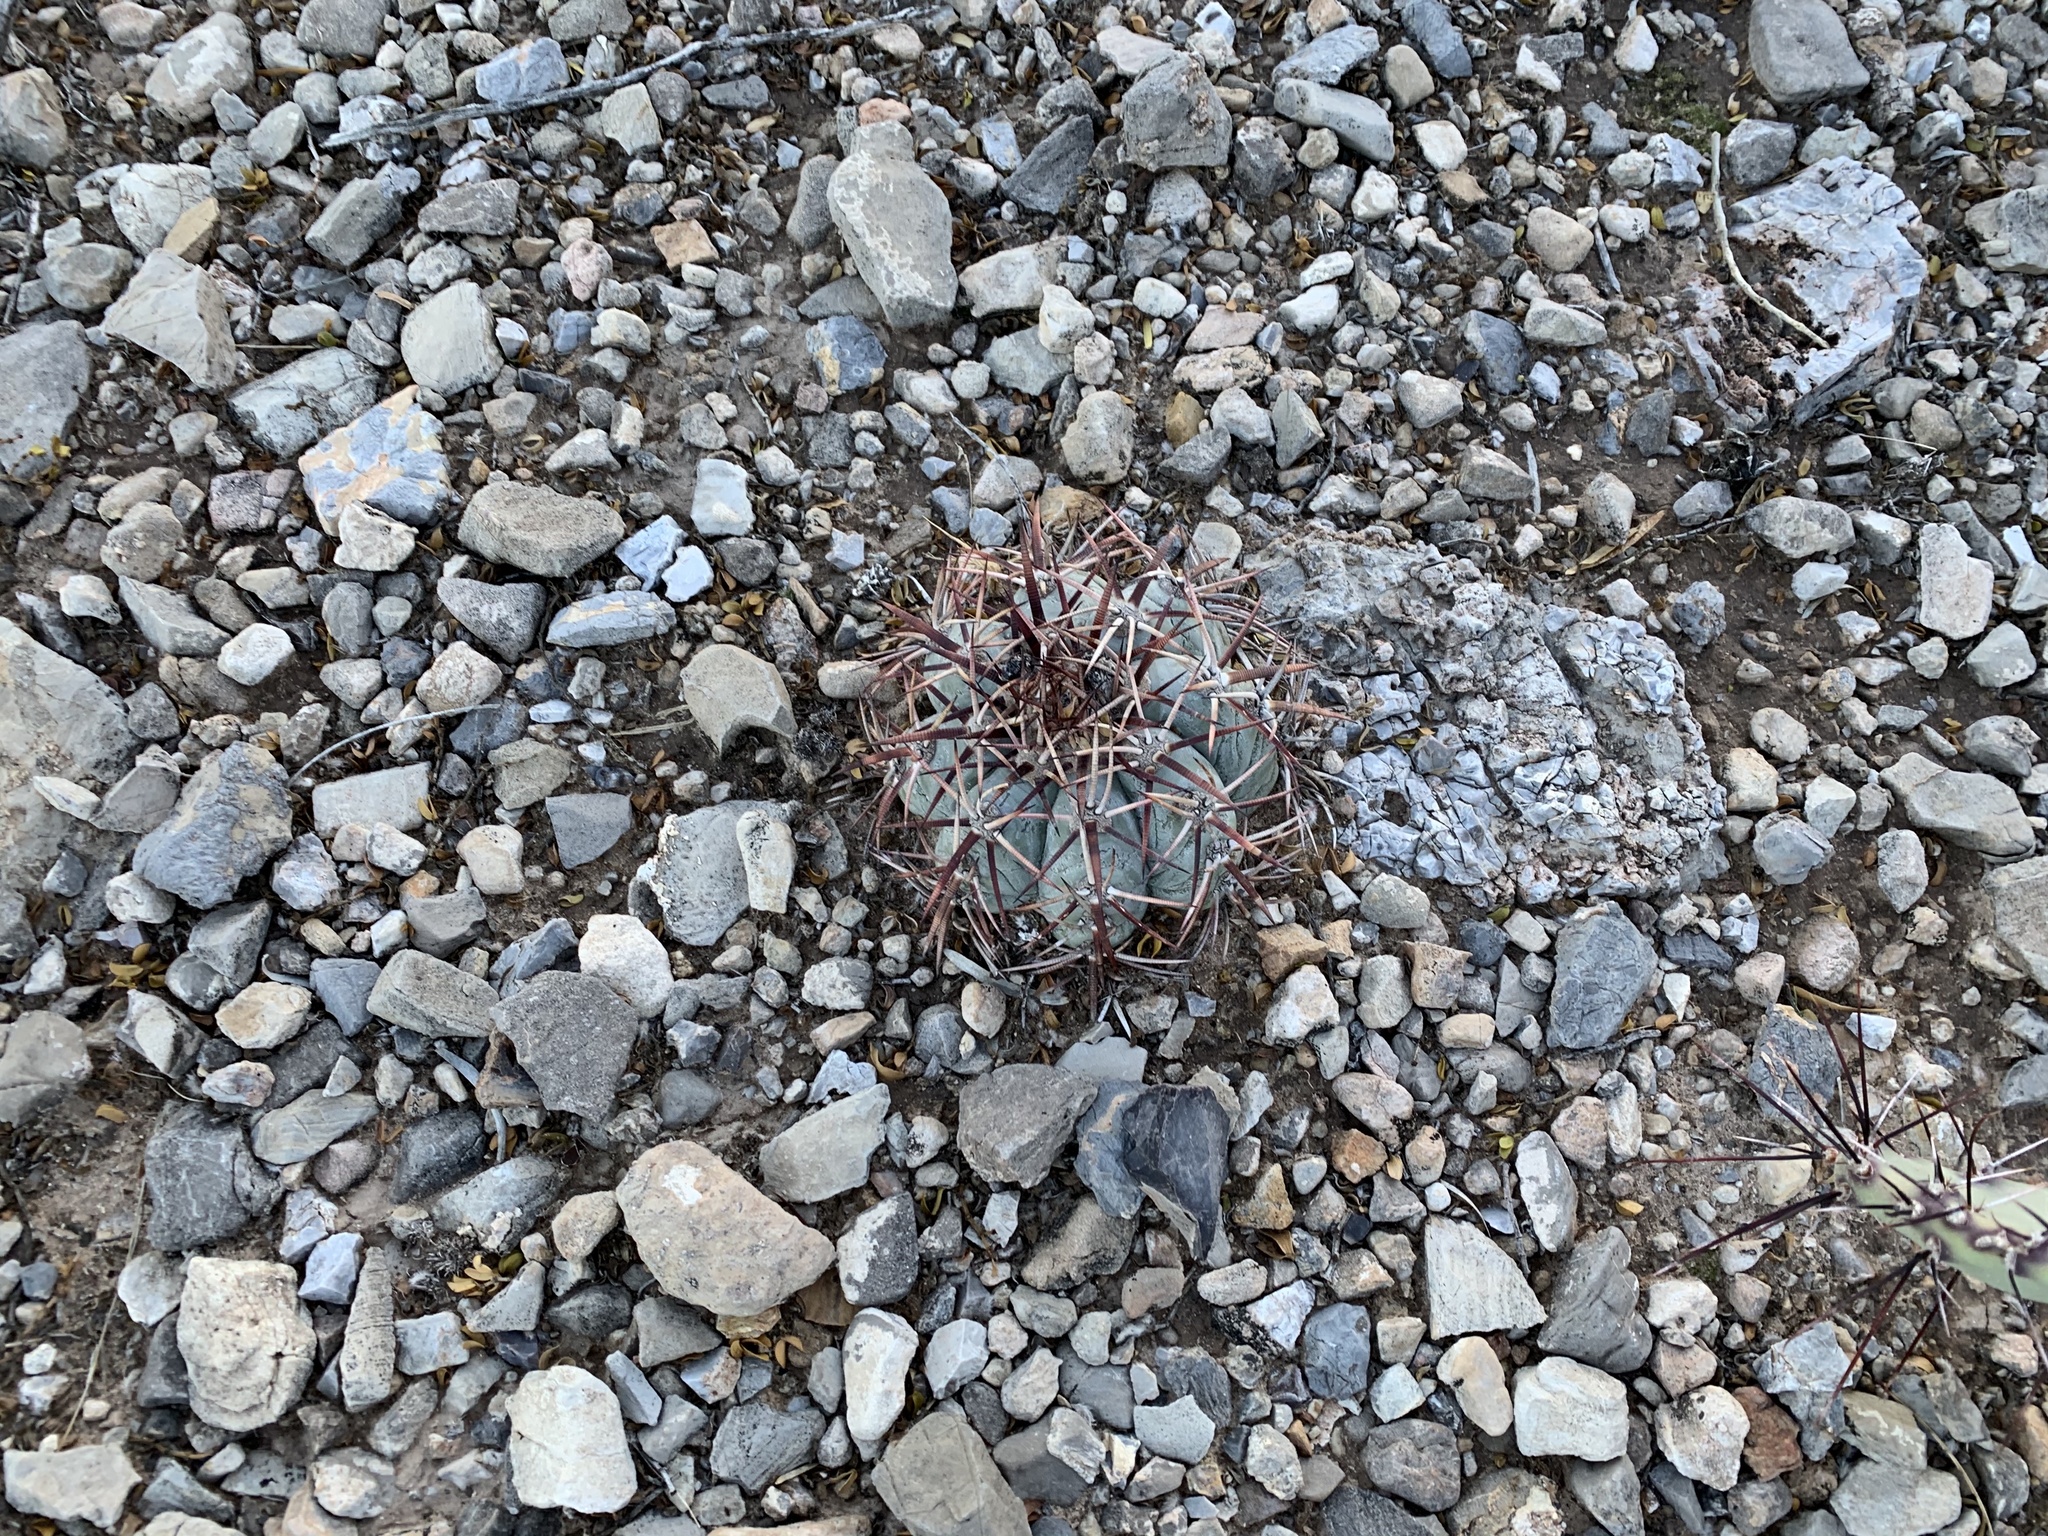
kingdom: Plantae
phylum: Tracheophyta
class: Magnoliopsida
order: Caryophyllales
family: Cactaceae
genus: Echinocactus
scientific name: Echinocactus horizonthalonius
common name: Devilshead
